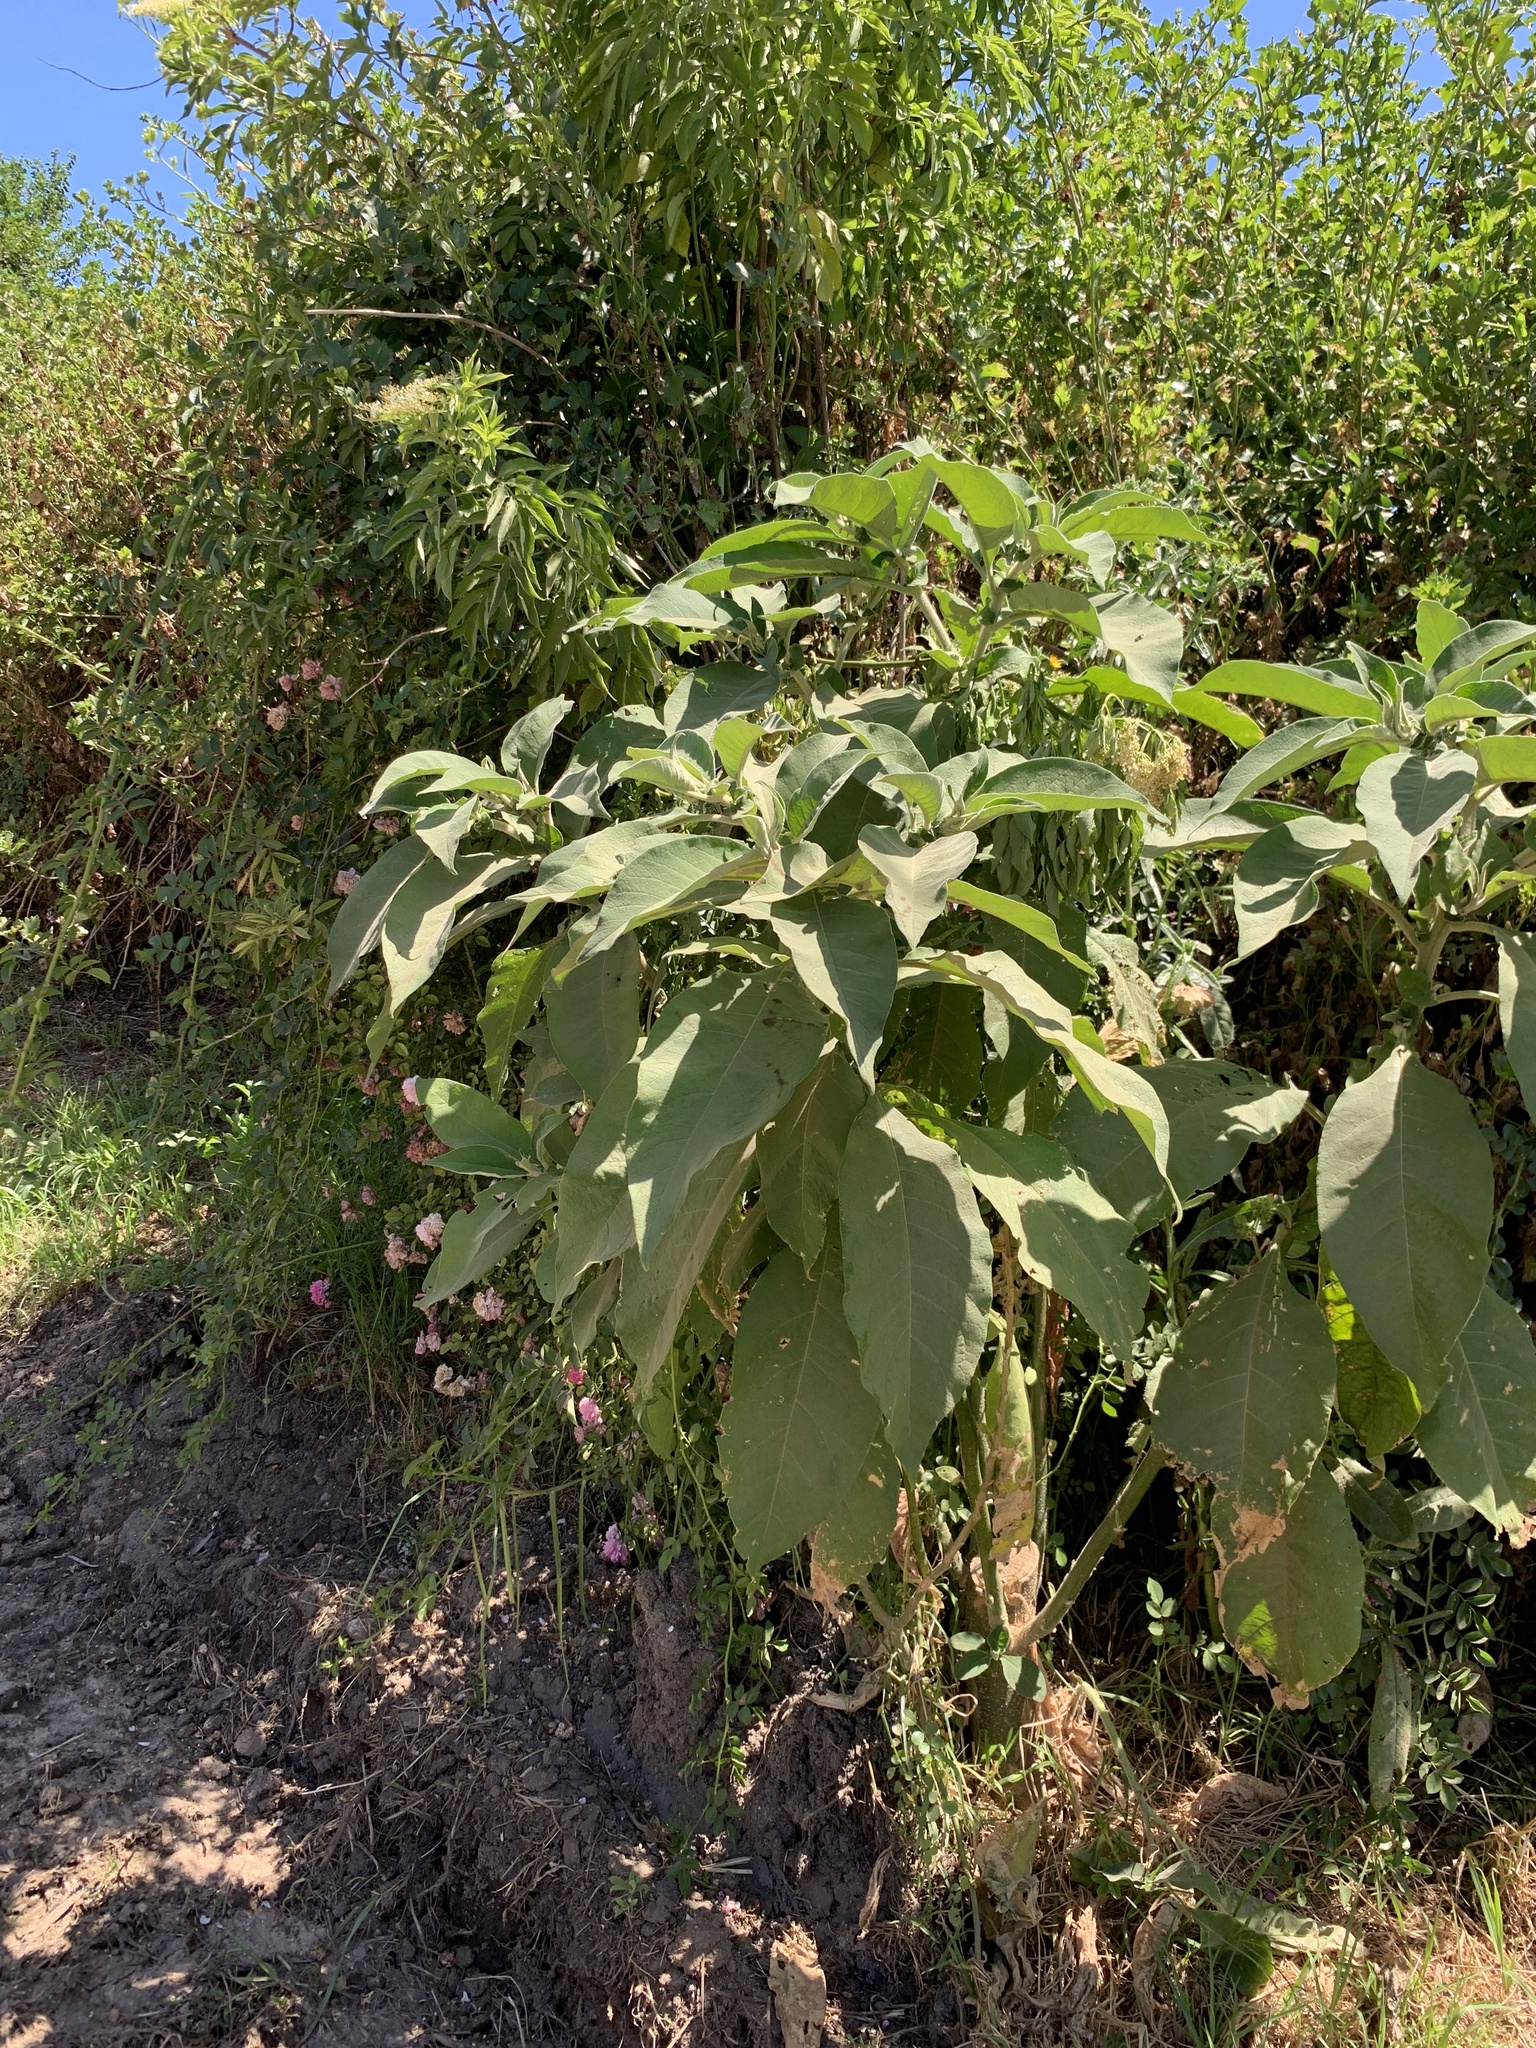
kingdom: Plantae
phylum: Tracheophyta
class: Magnoliopsida
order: Solanales
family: Solanaceae
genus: Solanum
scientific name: Solanum mauritianum
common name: Earleaf nightshade
